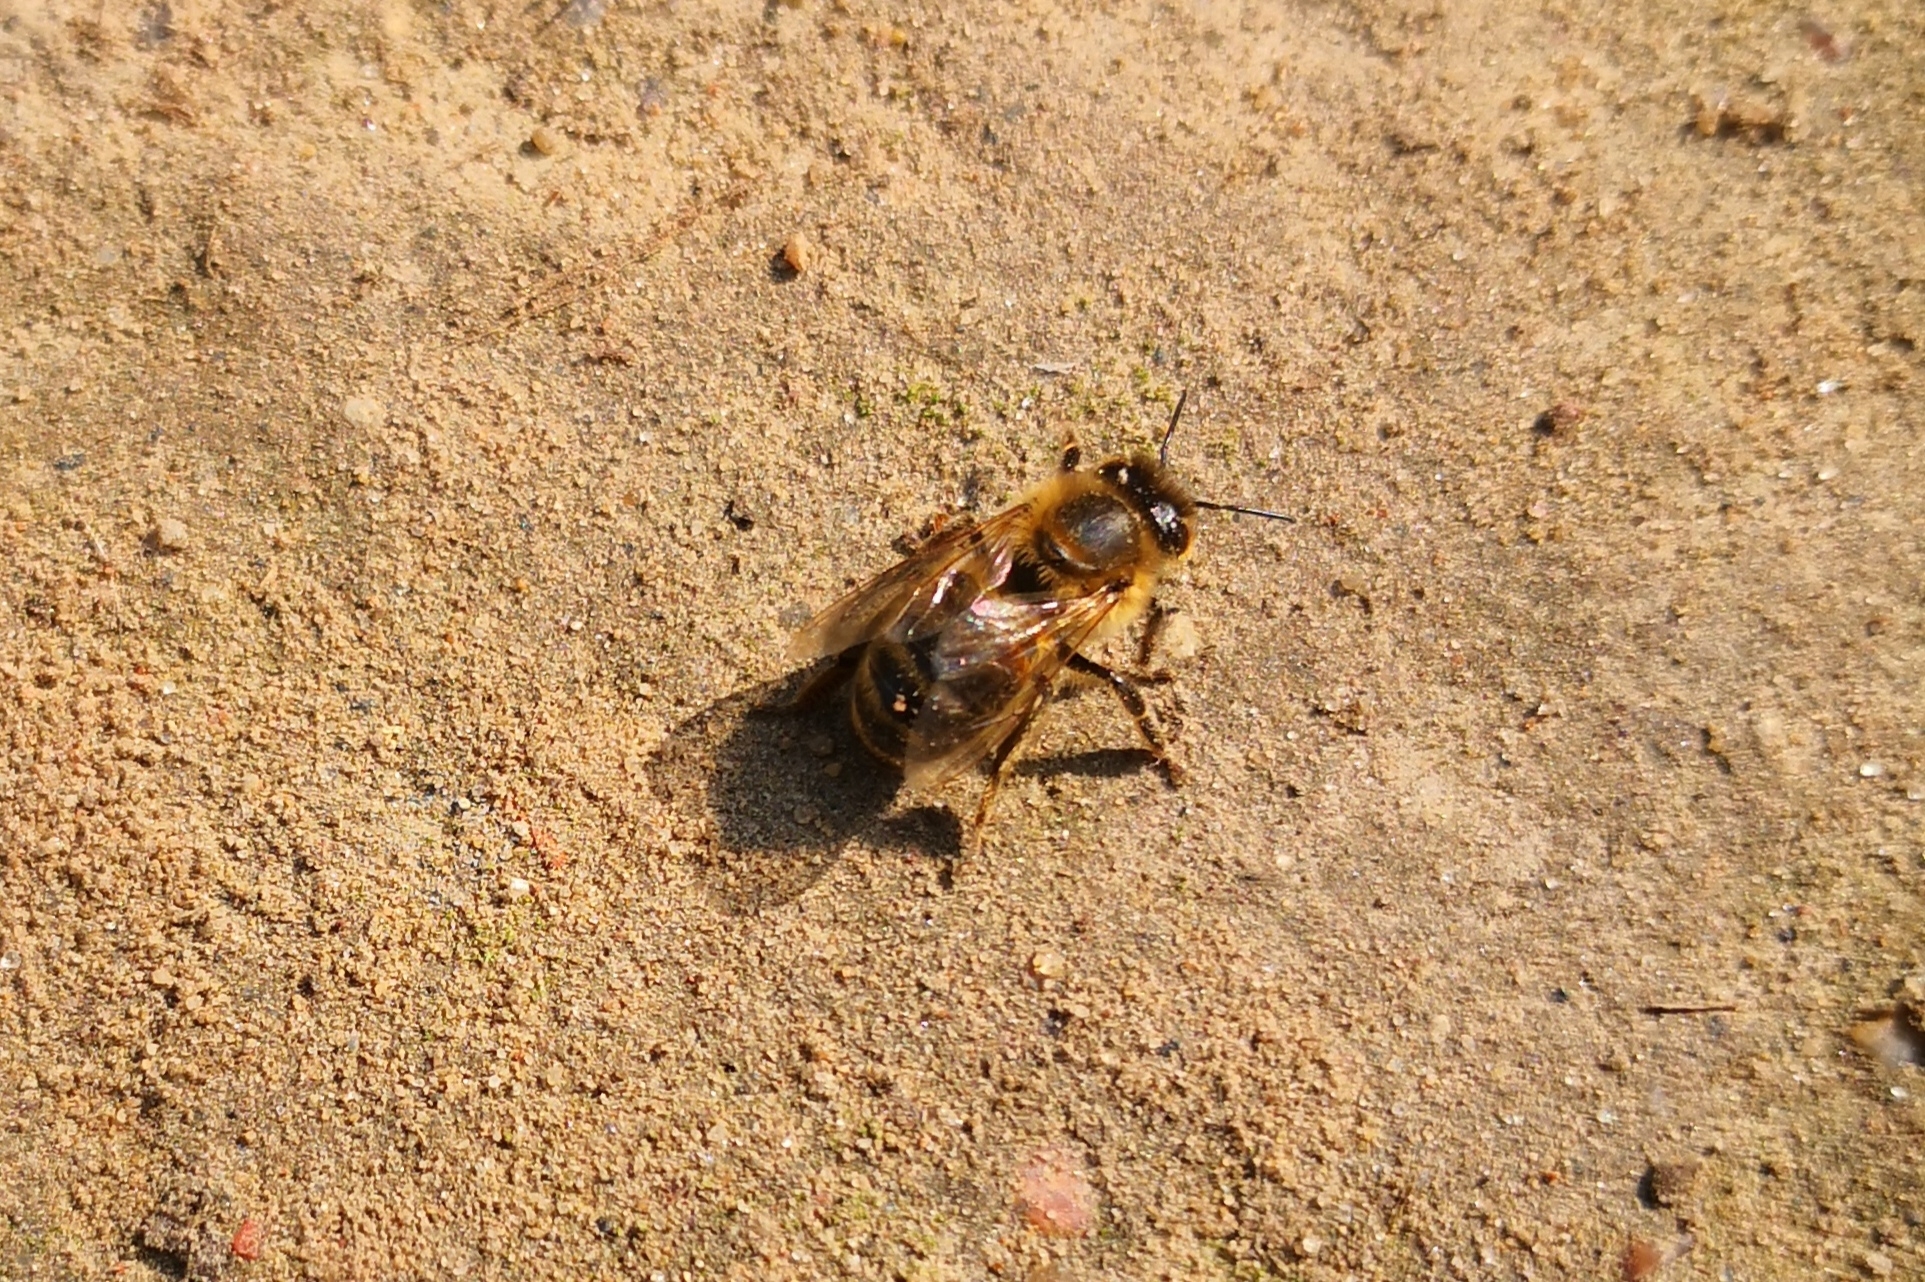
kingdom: Animalia
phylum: Arthropoda
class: Insecta
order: Hymenoptera
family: Apidae
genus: Apis
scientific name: Apis mellifera
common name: Honey bee
